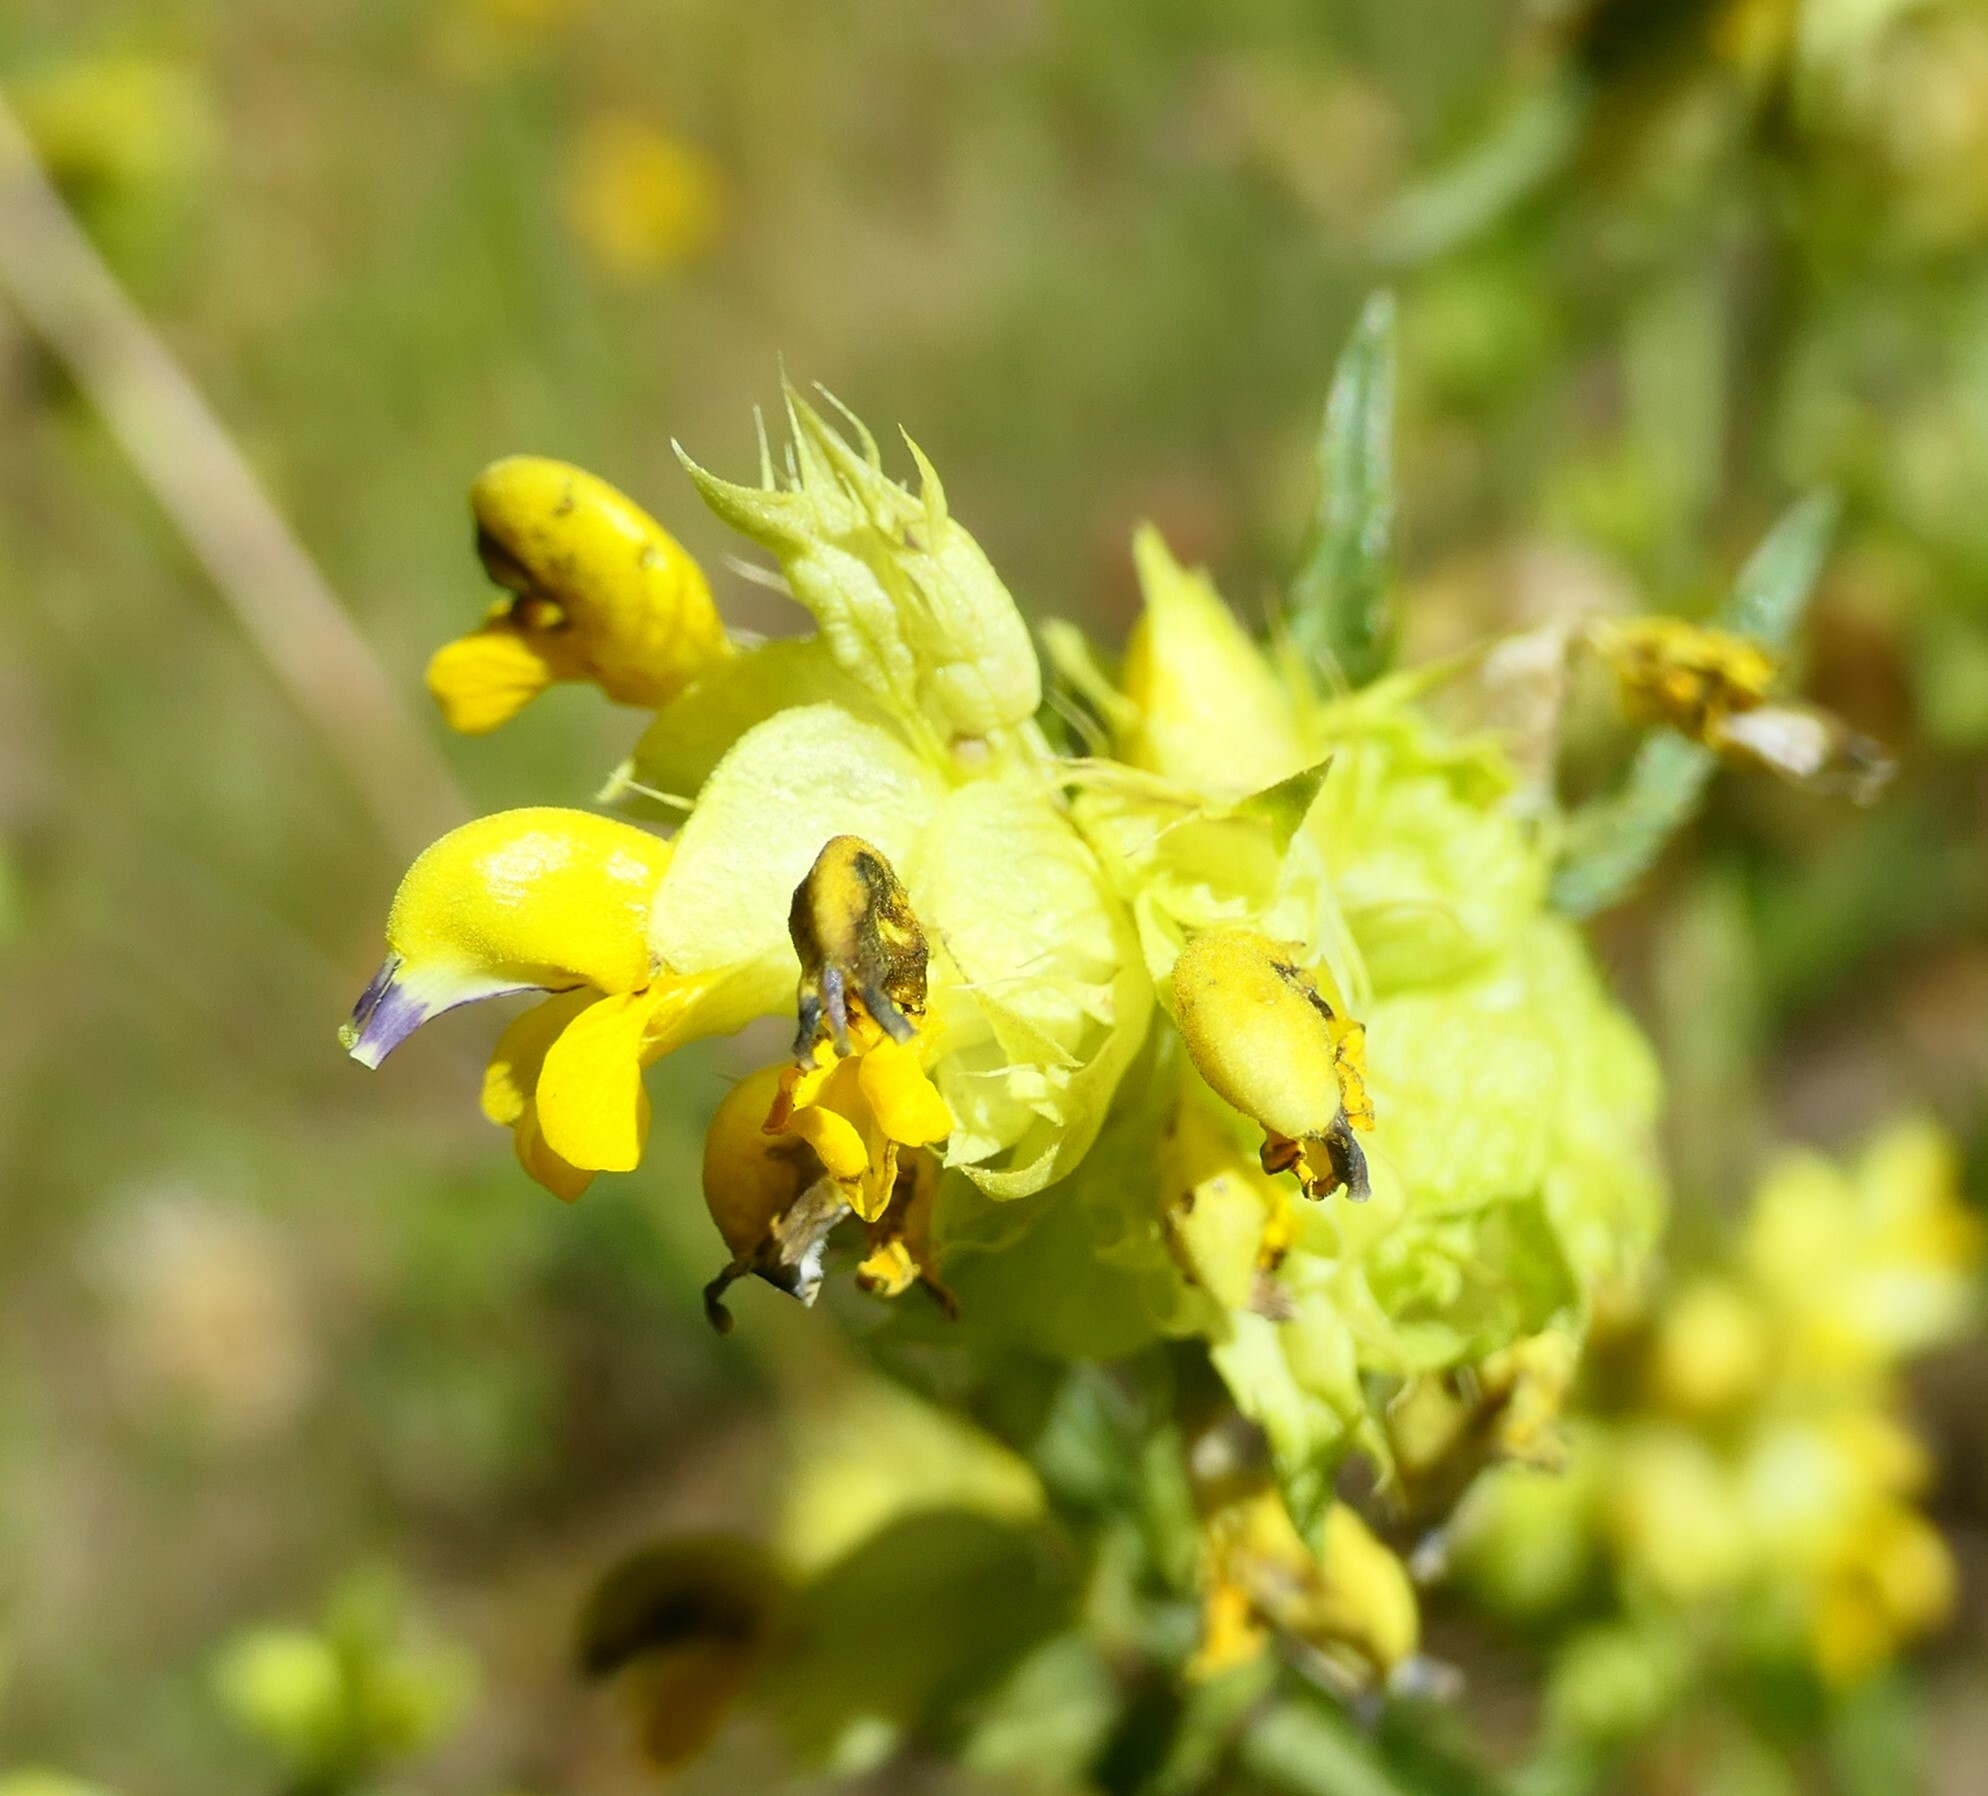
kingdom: Plantae
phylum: Tracheophyta
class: Magnoliopsida
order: Lamiales
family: Orobanchaceae
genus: Rhinanthus
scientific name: Rhinanthus glacialis
